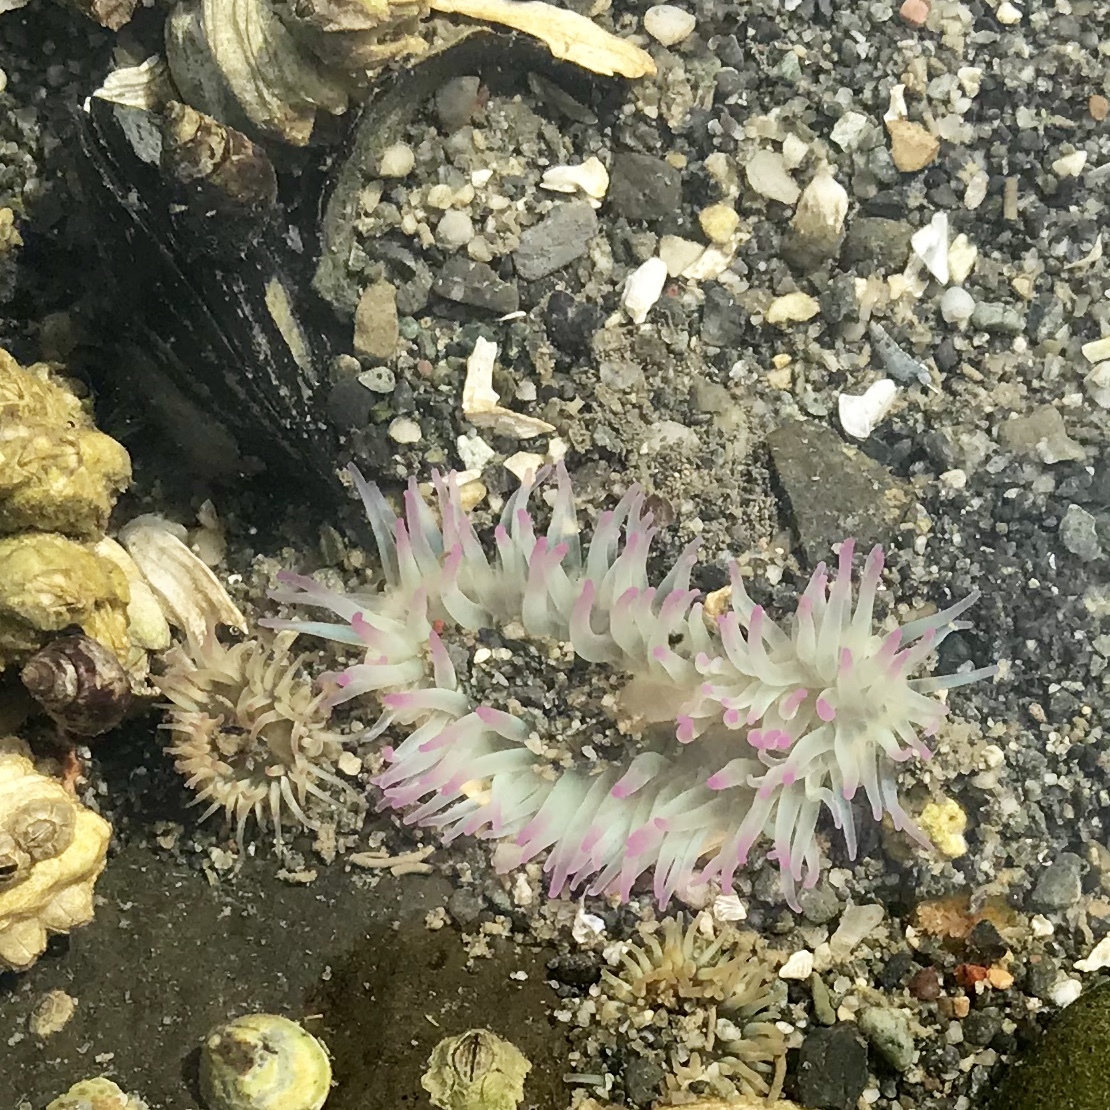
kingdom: Animalia
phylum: Cnidaria
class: Anthozoa
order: Actiniaria
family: Actiniidae
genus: Anthopleura
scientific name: Anthopleura elegantissima
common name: Clonal anemone
